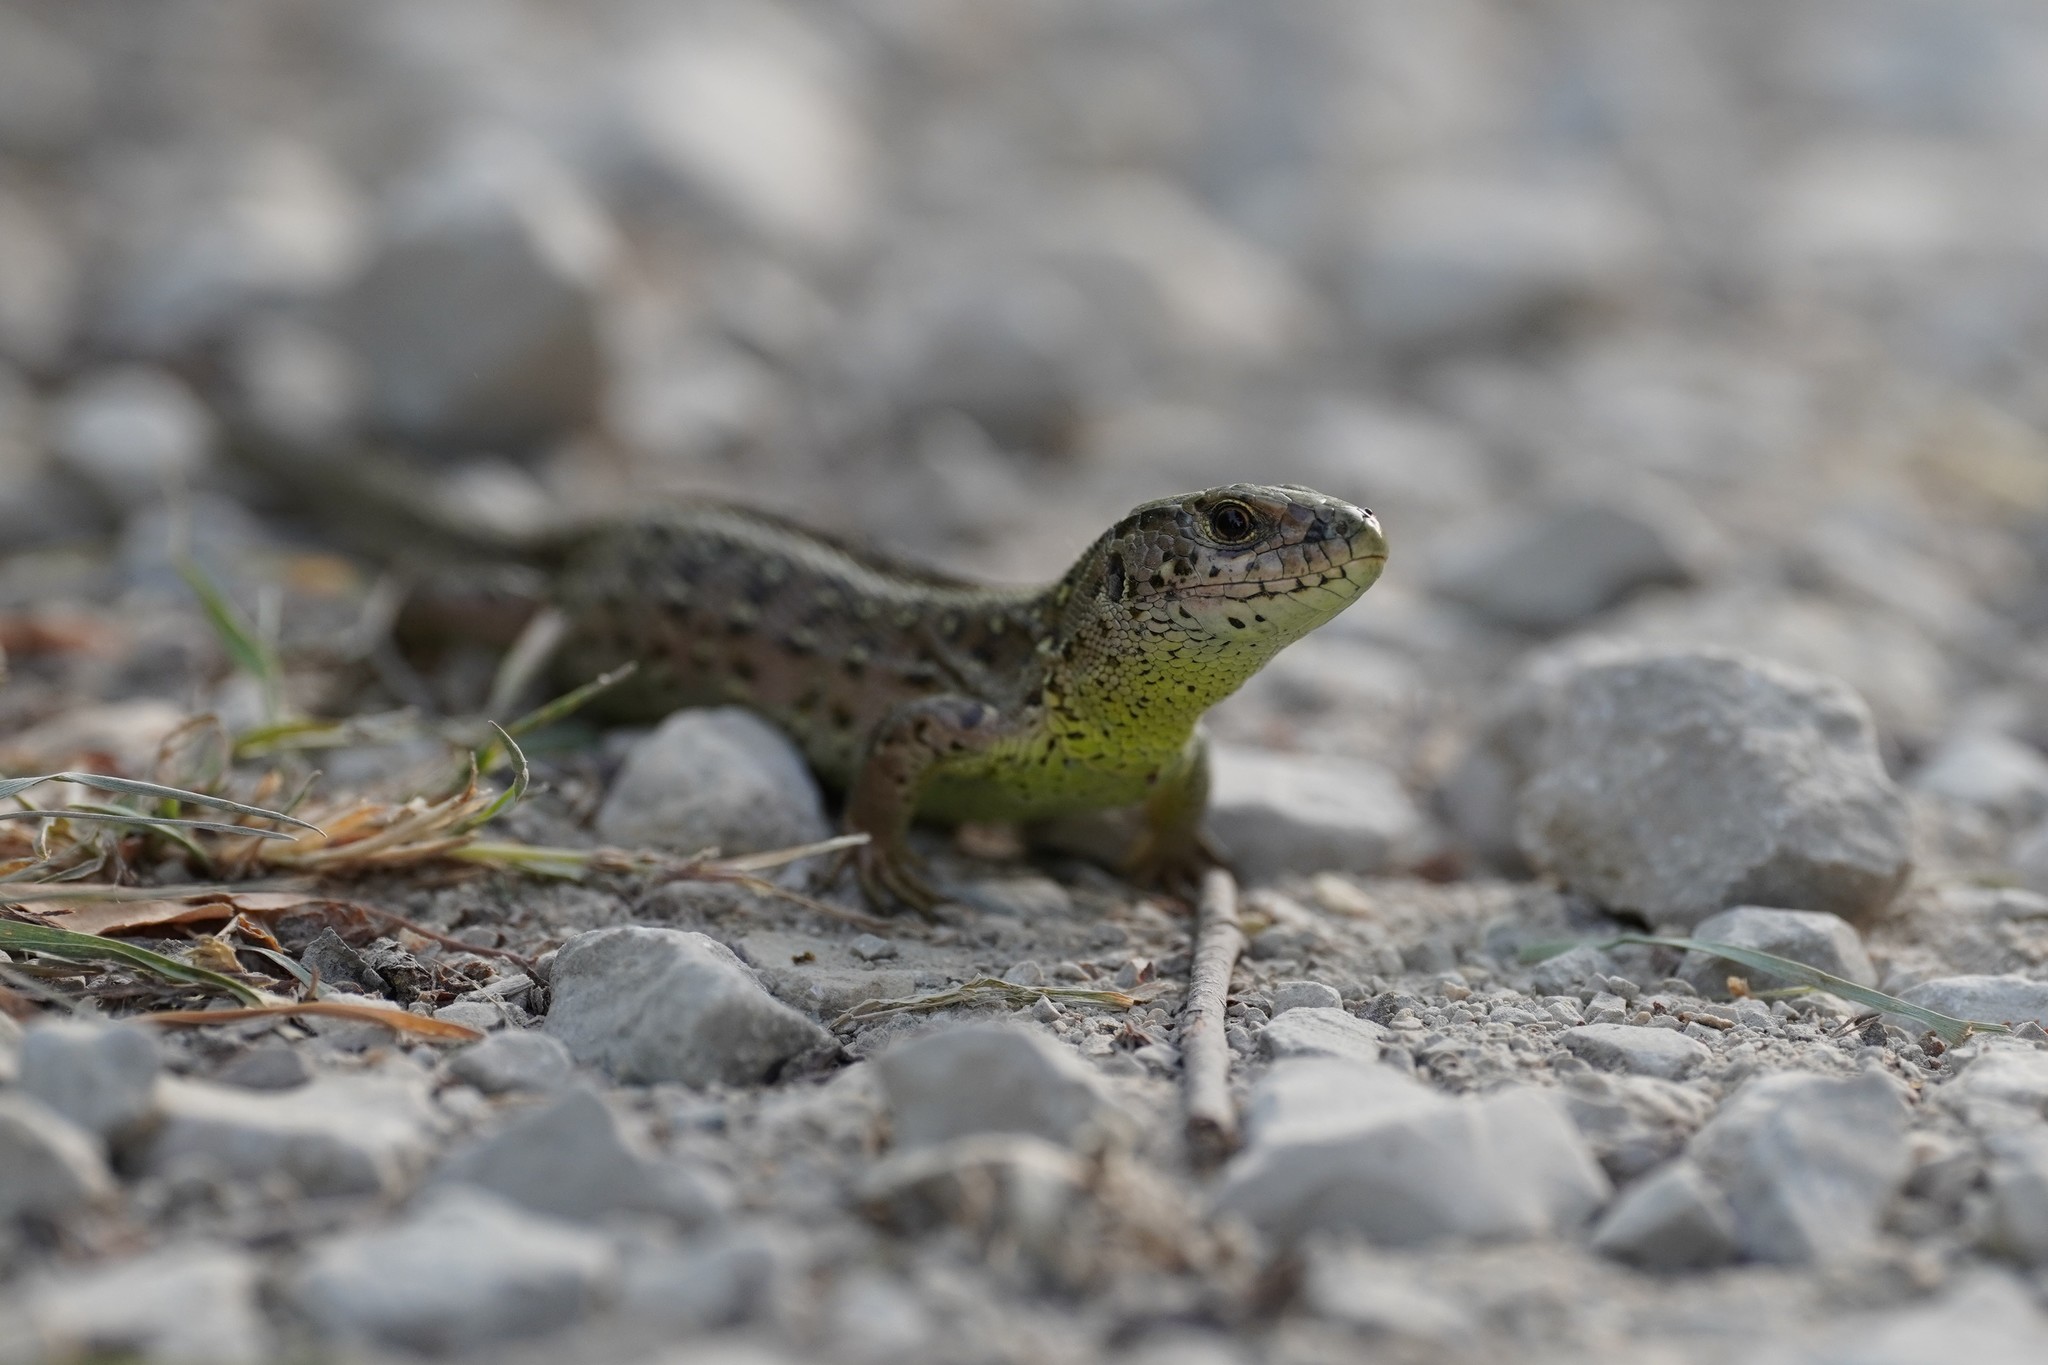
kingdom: Animalia
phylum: Chordata
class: Squamata
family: Lacertidae
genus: Lacerta
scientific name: Lacerta agilis
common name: Sand lizard
